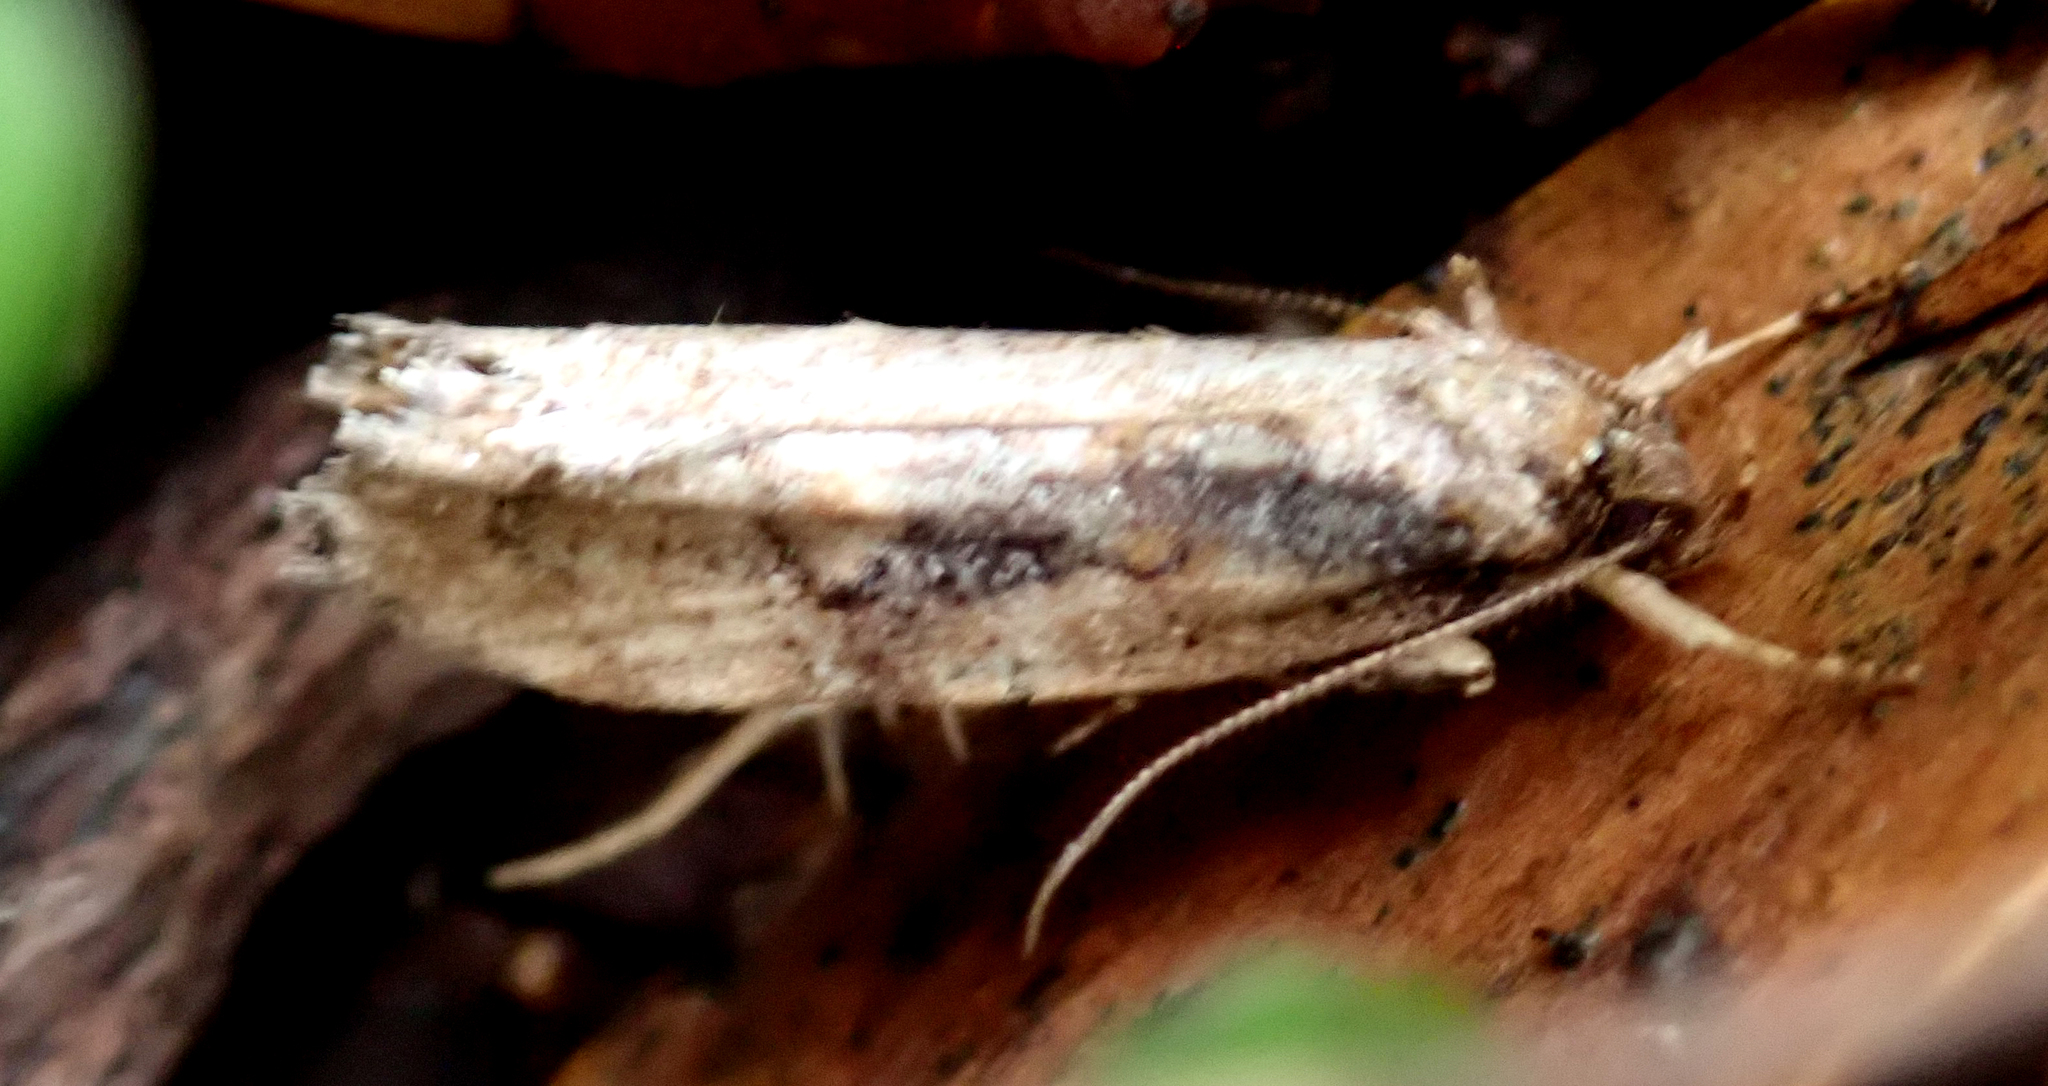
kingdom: Animalia
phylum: Arthropoda
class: Insecta
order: Lepidoptera
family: Oecophoridae
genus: Atomotricha
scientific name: Atomotricha isogama
